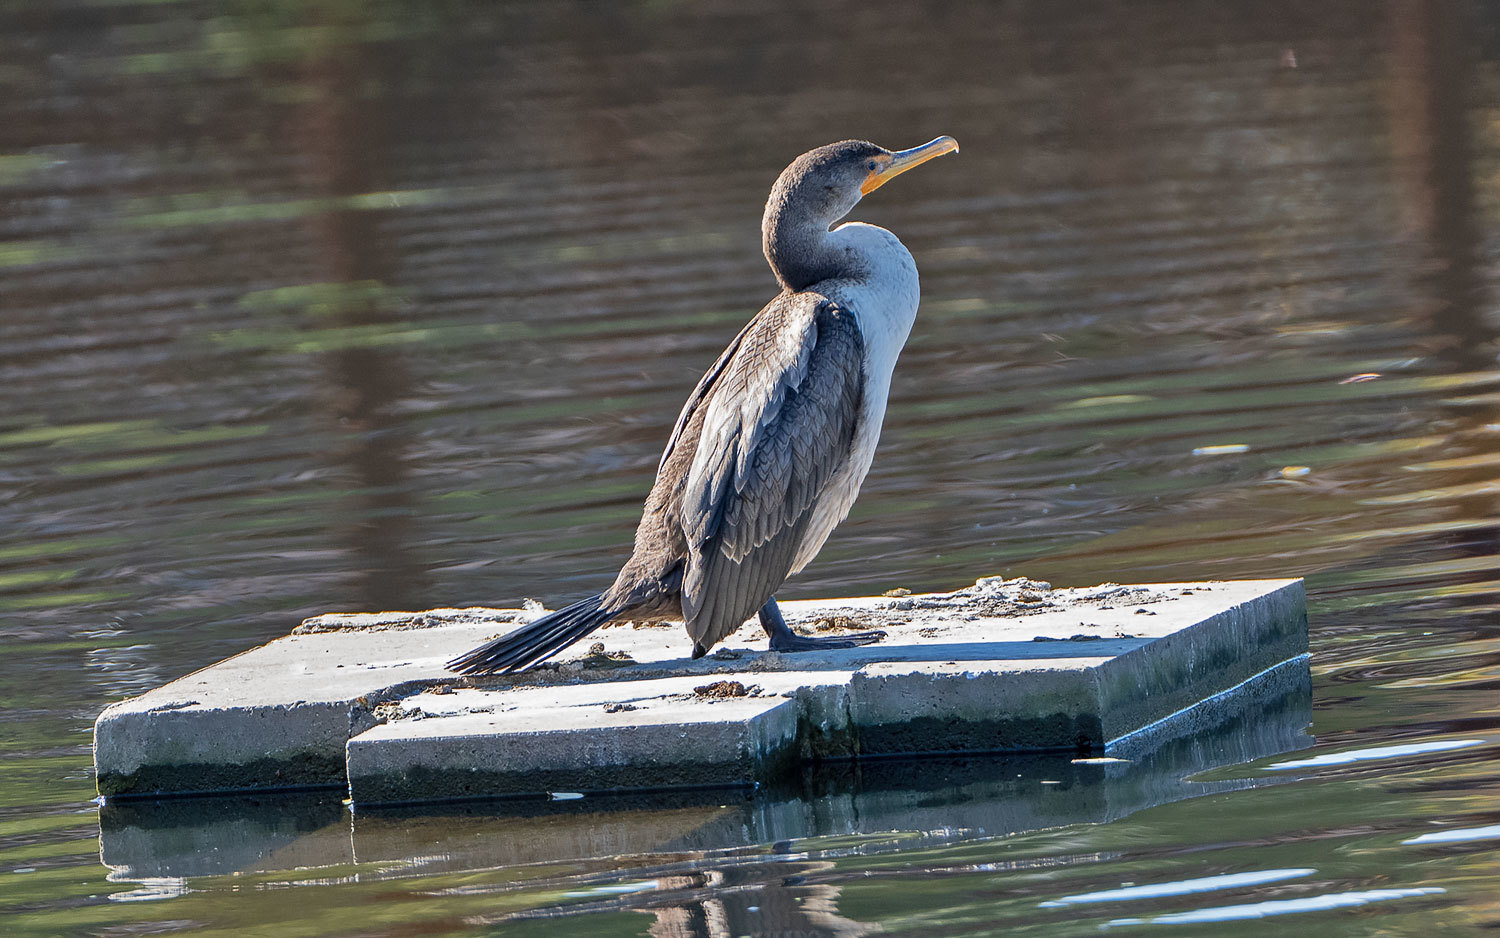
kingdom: Animalia
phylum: Chordata
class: Aves
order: Suliformes
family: Phalacrocoracidae
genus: Phalacrocorax
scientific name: Phalacrocorax auritus
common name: Double-crested cormorant
